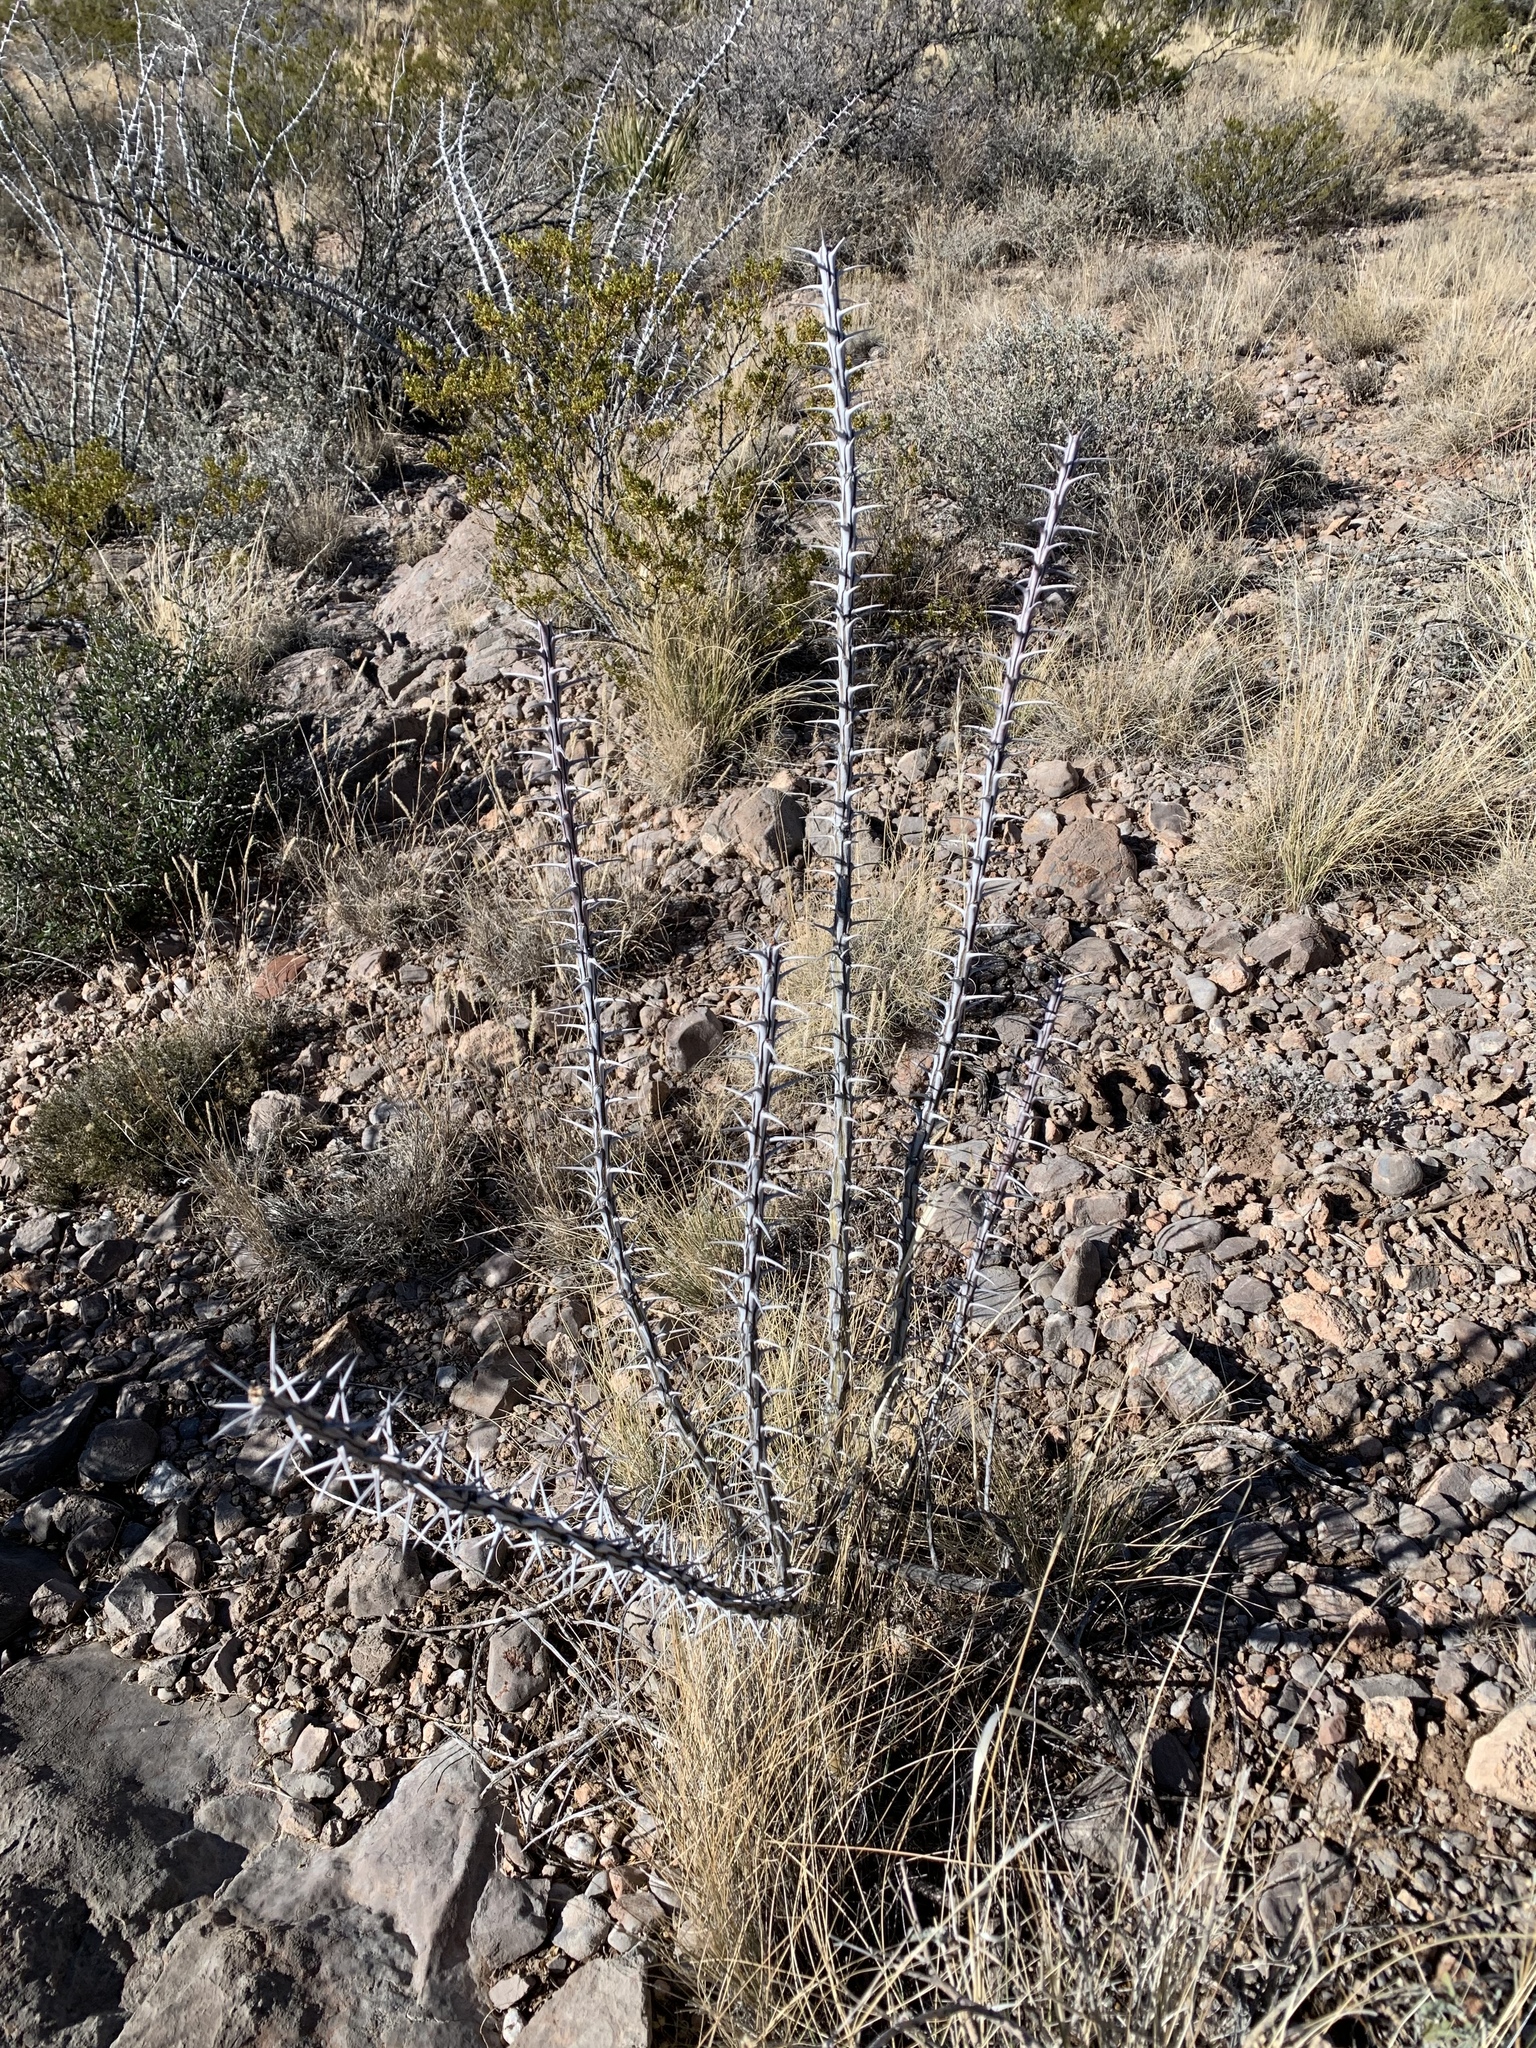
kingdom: Plantae
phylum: Tracheophyta
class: Magnoliopsida
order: Ericales
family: Fouquieriaceae
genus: Fouquieria
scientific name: Fouquieria splendens
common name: Vine-cactus
